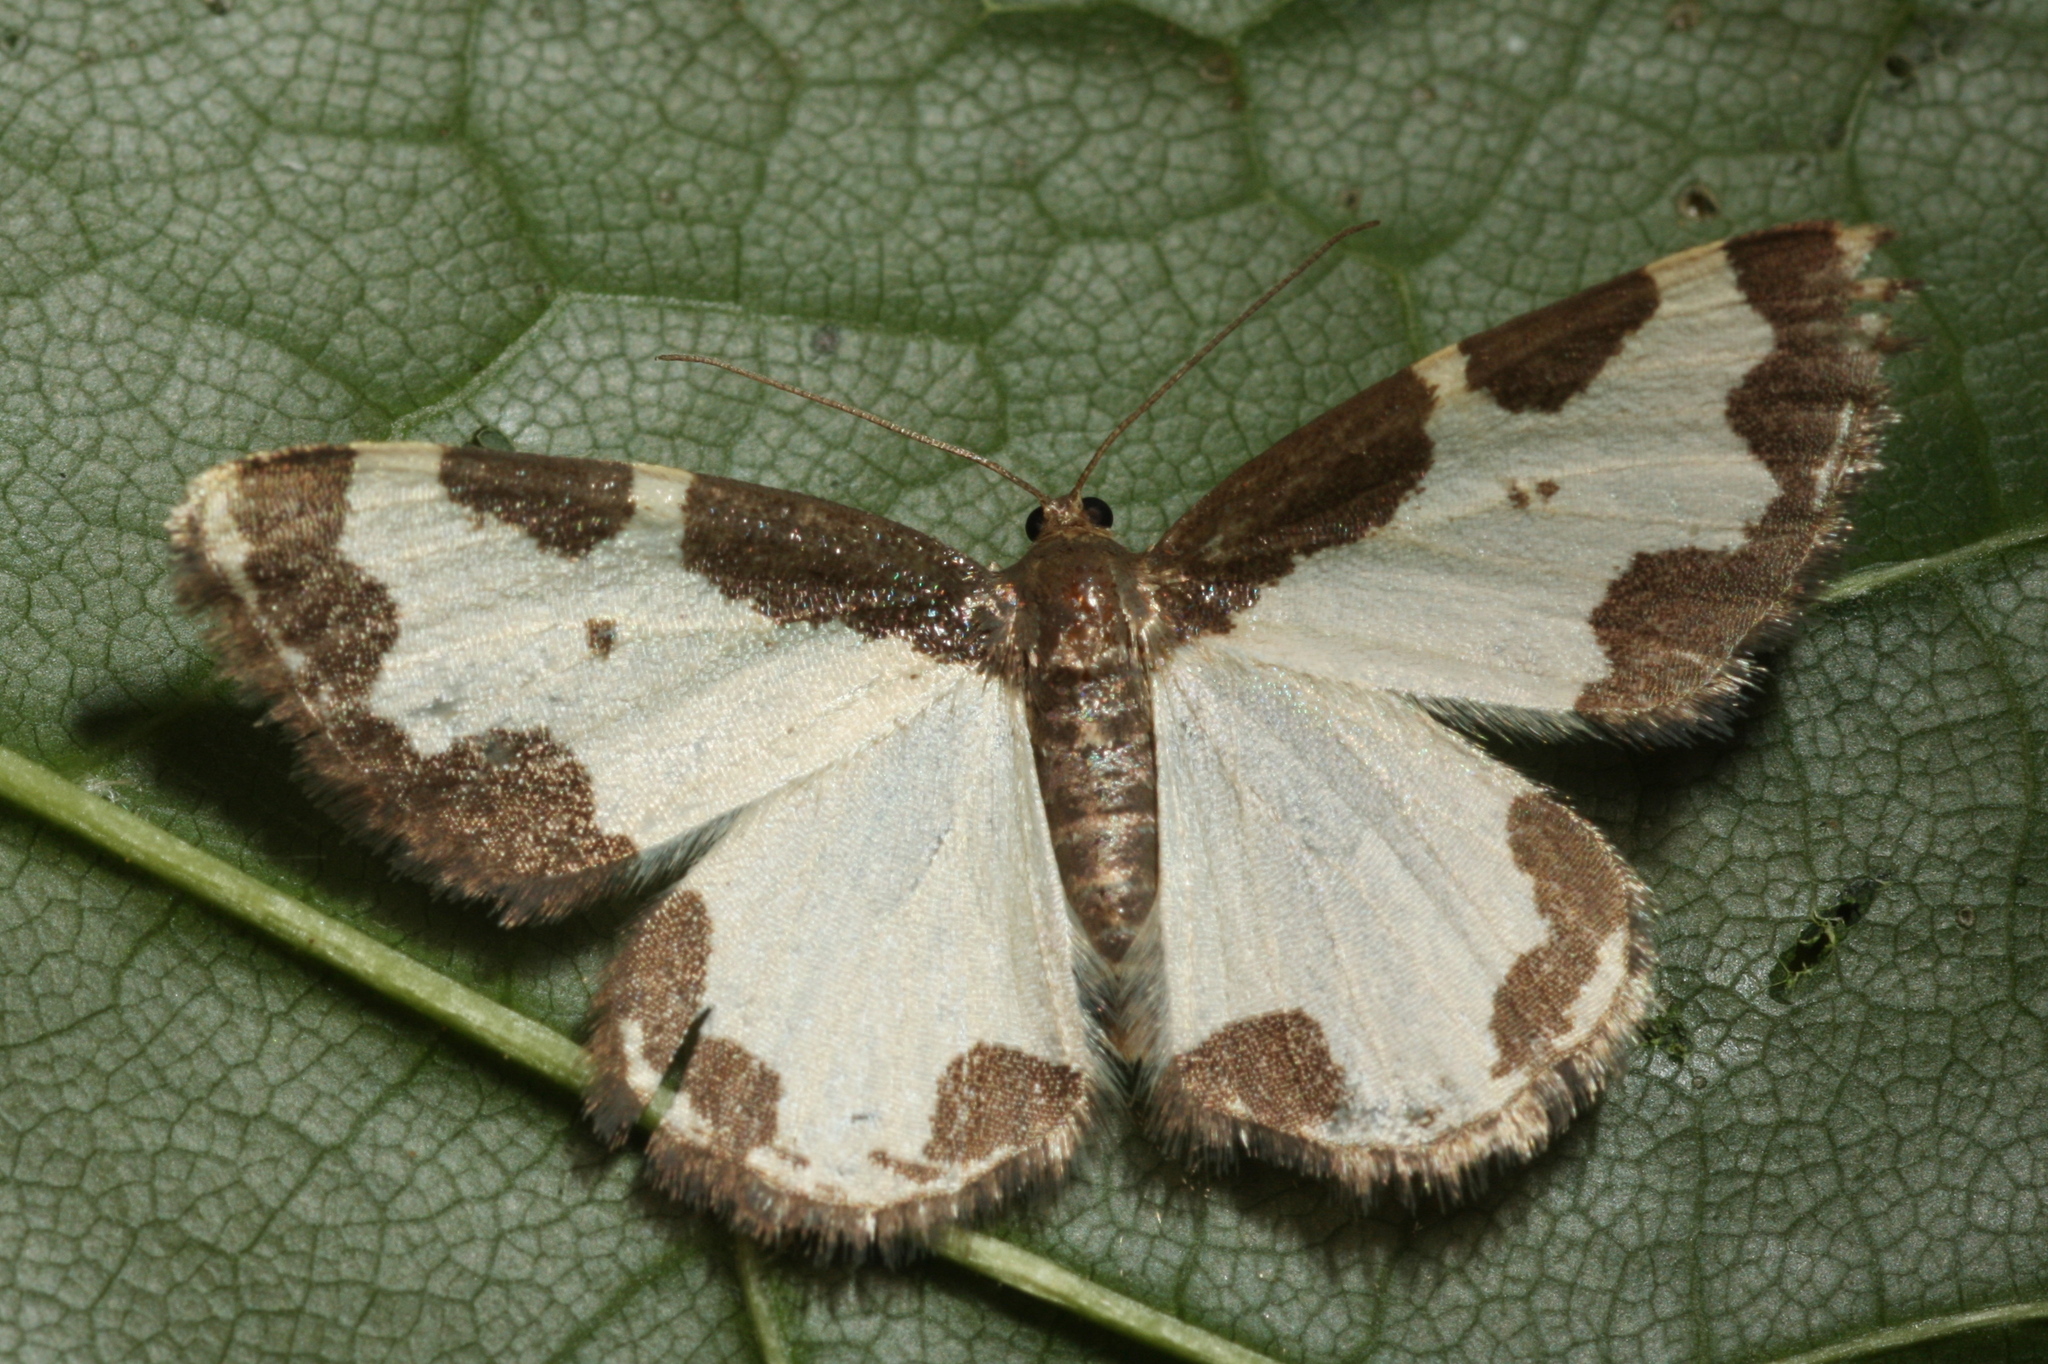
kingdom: Animalia
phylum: Arthropoda
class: Insecta
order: Lepidoptera
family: Geometridae
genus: Lomaspilis
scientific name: Lomaspilis marginata
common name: Clouded border
